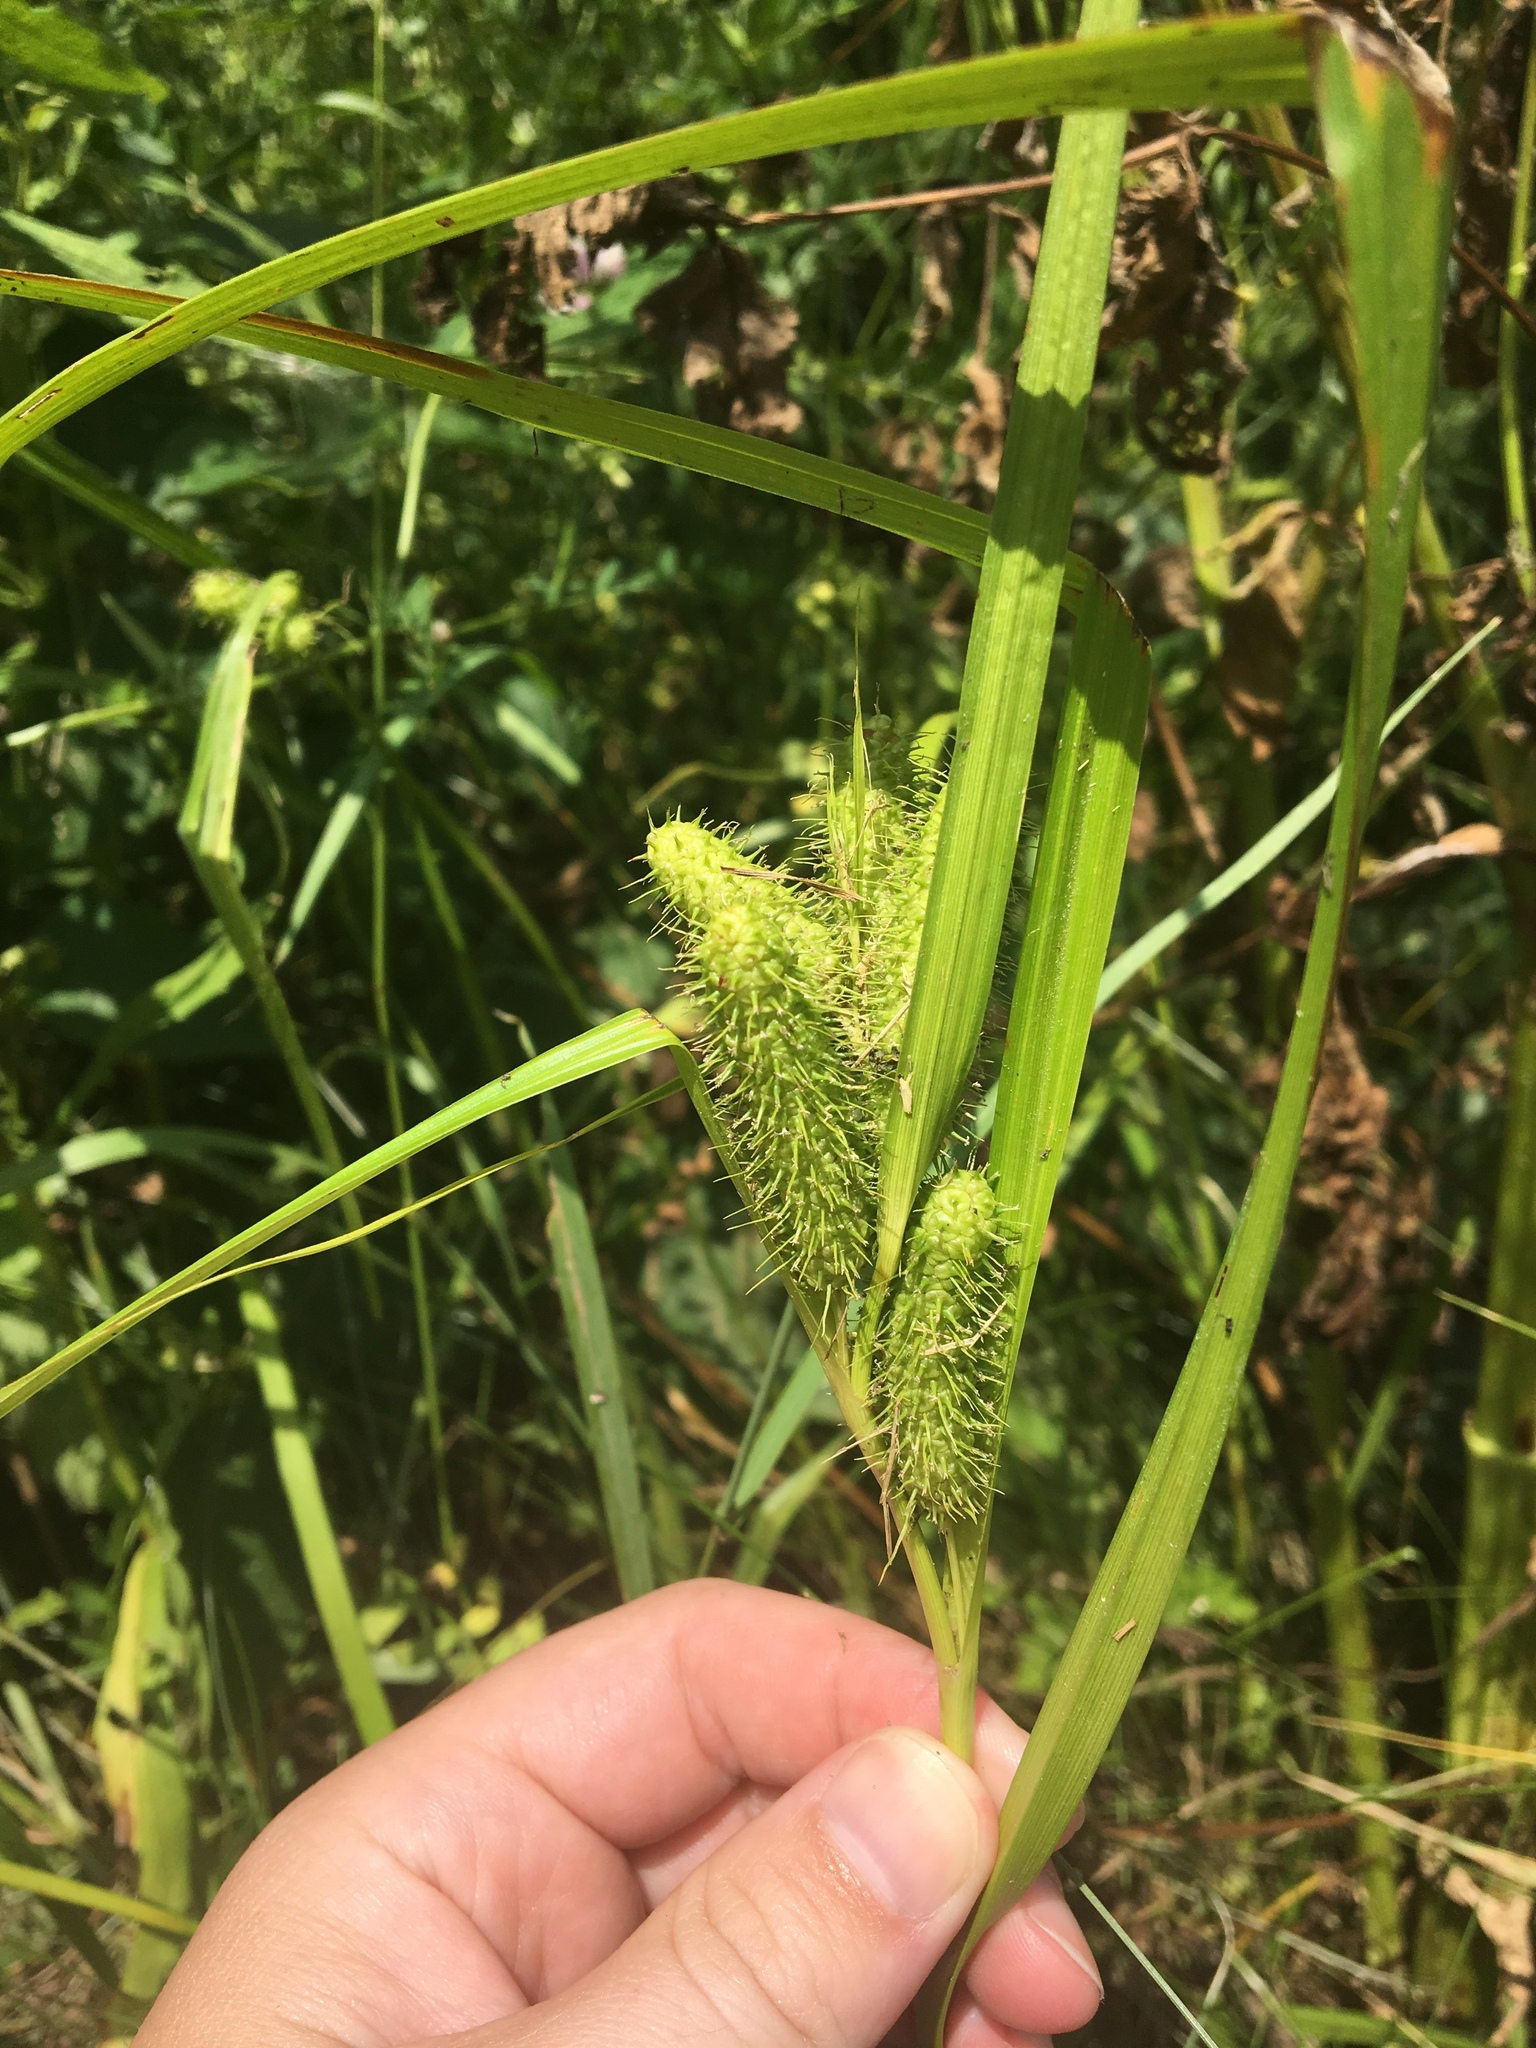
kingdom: Plantae
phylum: Tracheophyta
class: Liliopsida
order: Poales
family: Cyperaceae
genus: Carex
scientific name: Carex frankii
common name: Frank's sedge
